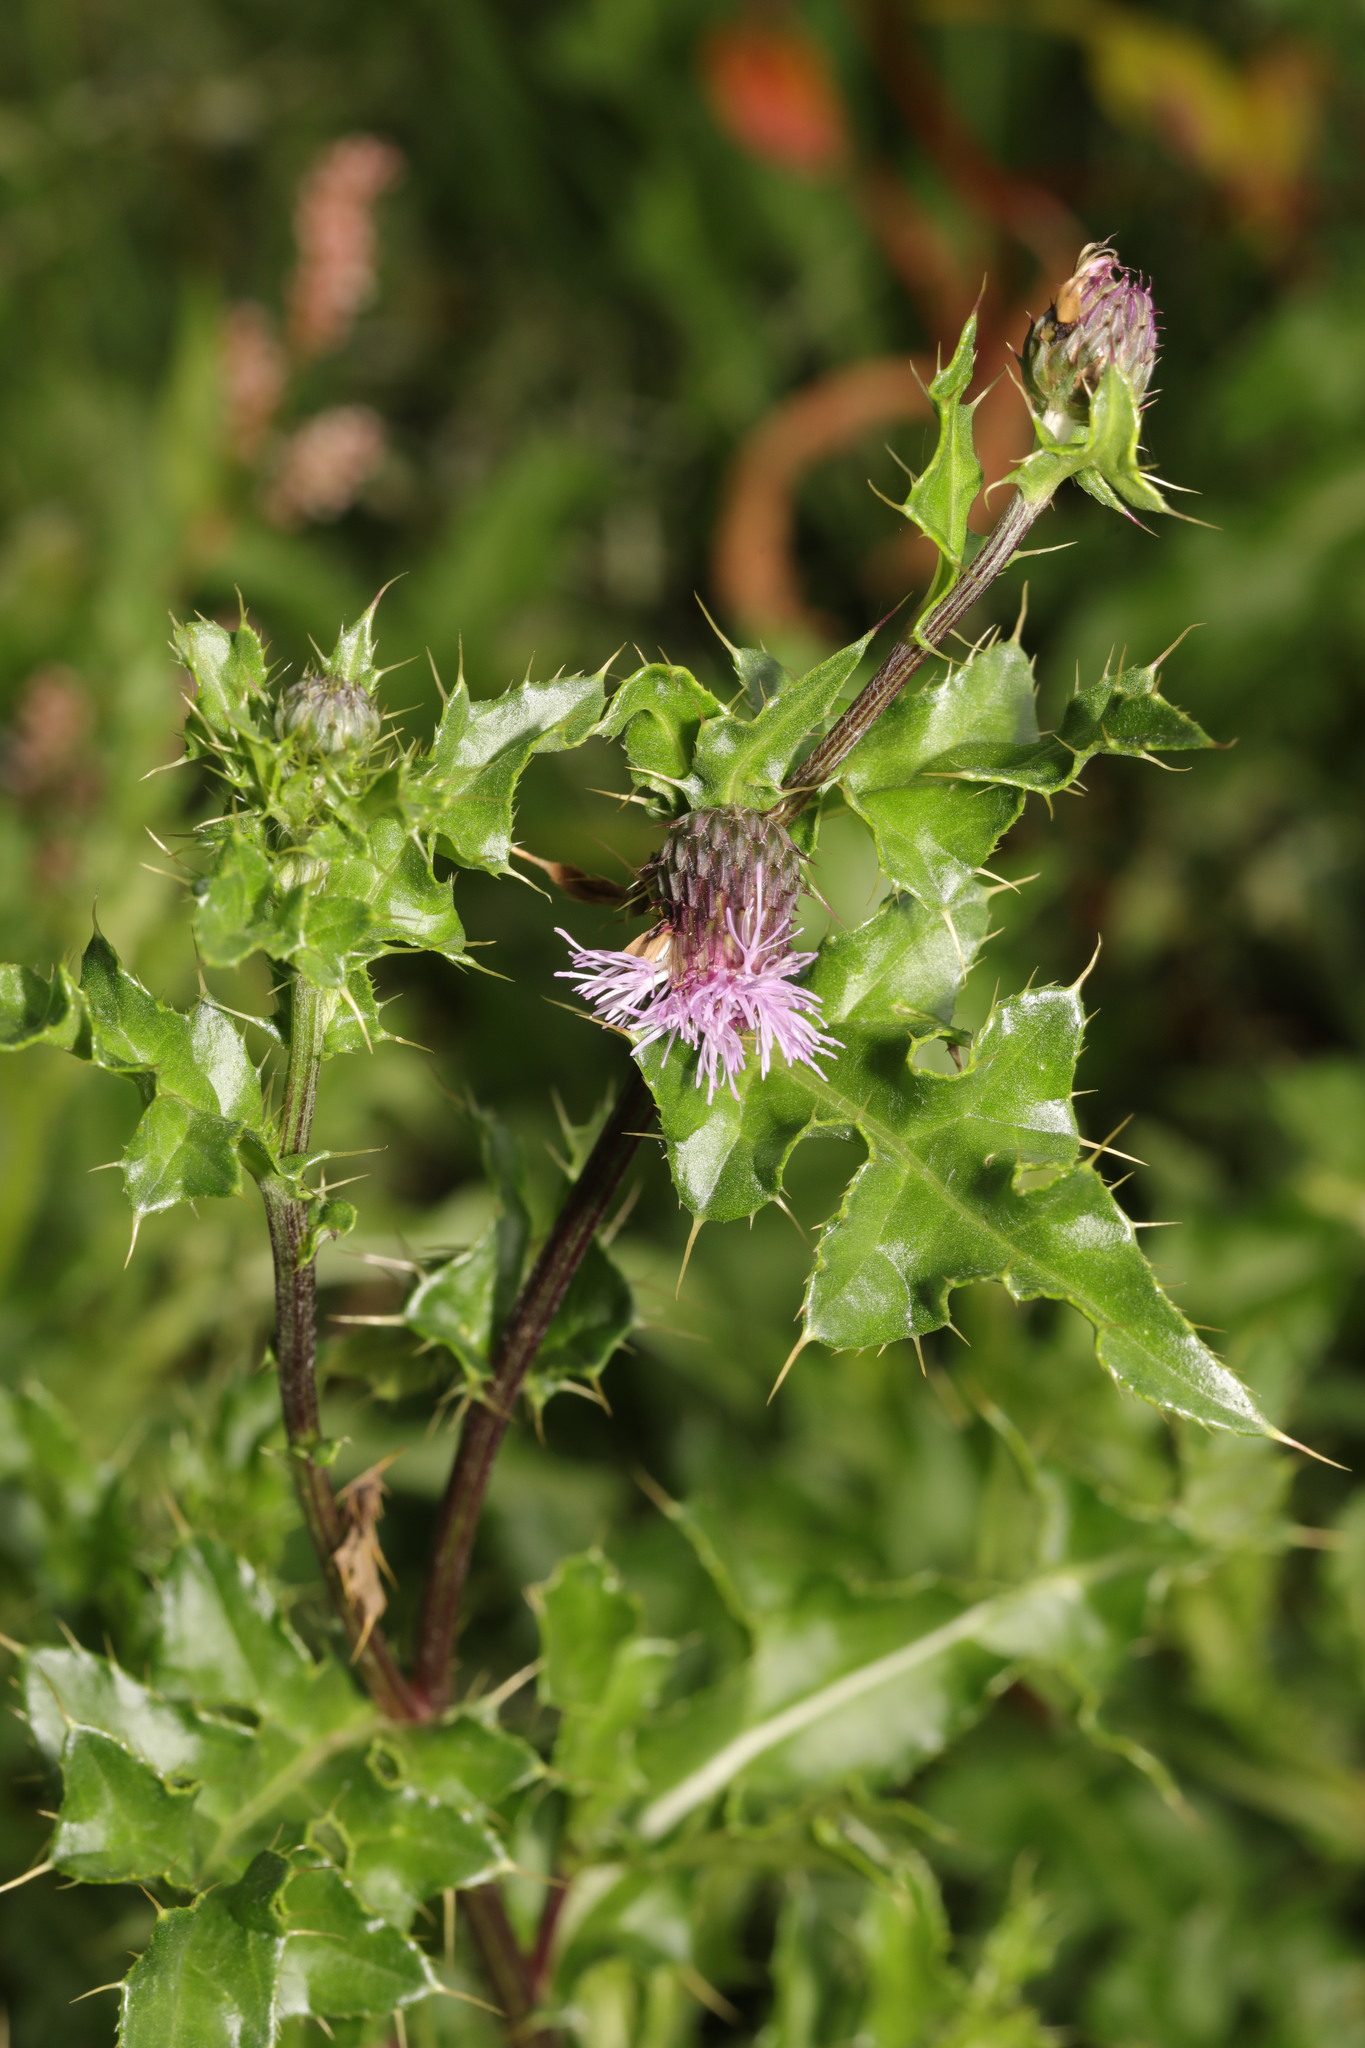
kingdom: Plantae
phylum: Tracheophyta
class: Magnoliopsida
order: Asterales
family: Asteraceae
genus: Cirsium
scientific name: Cirsium arvense
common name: Creeping thistle
